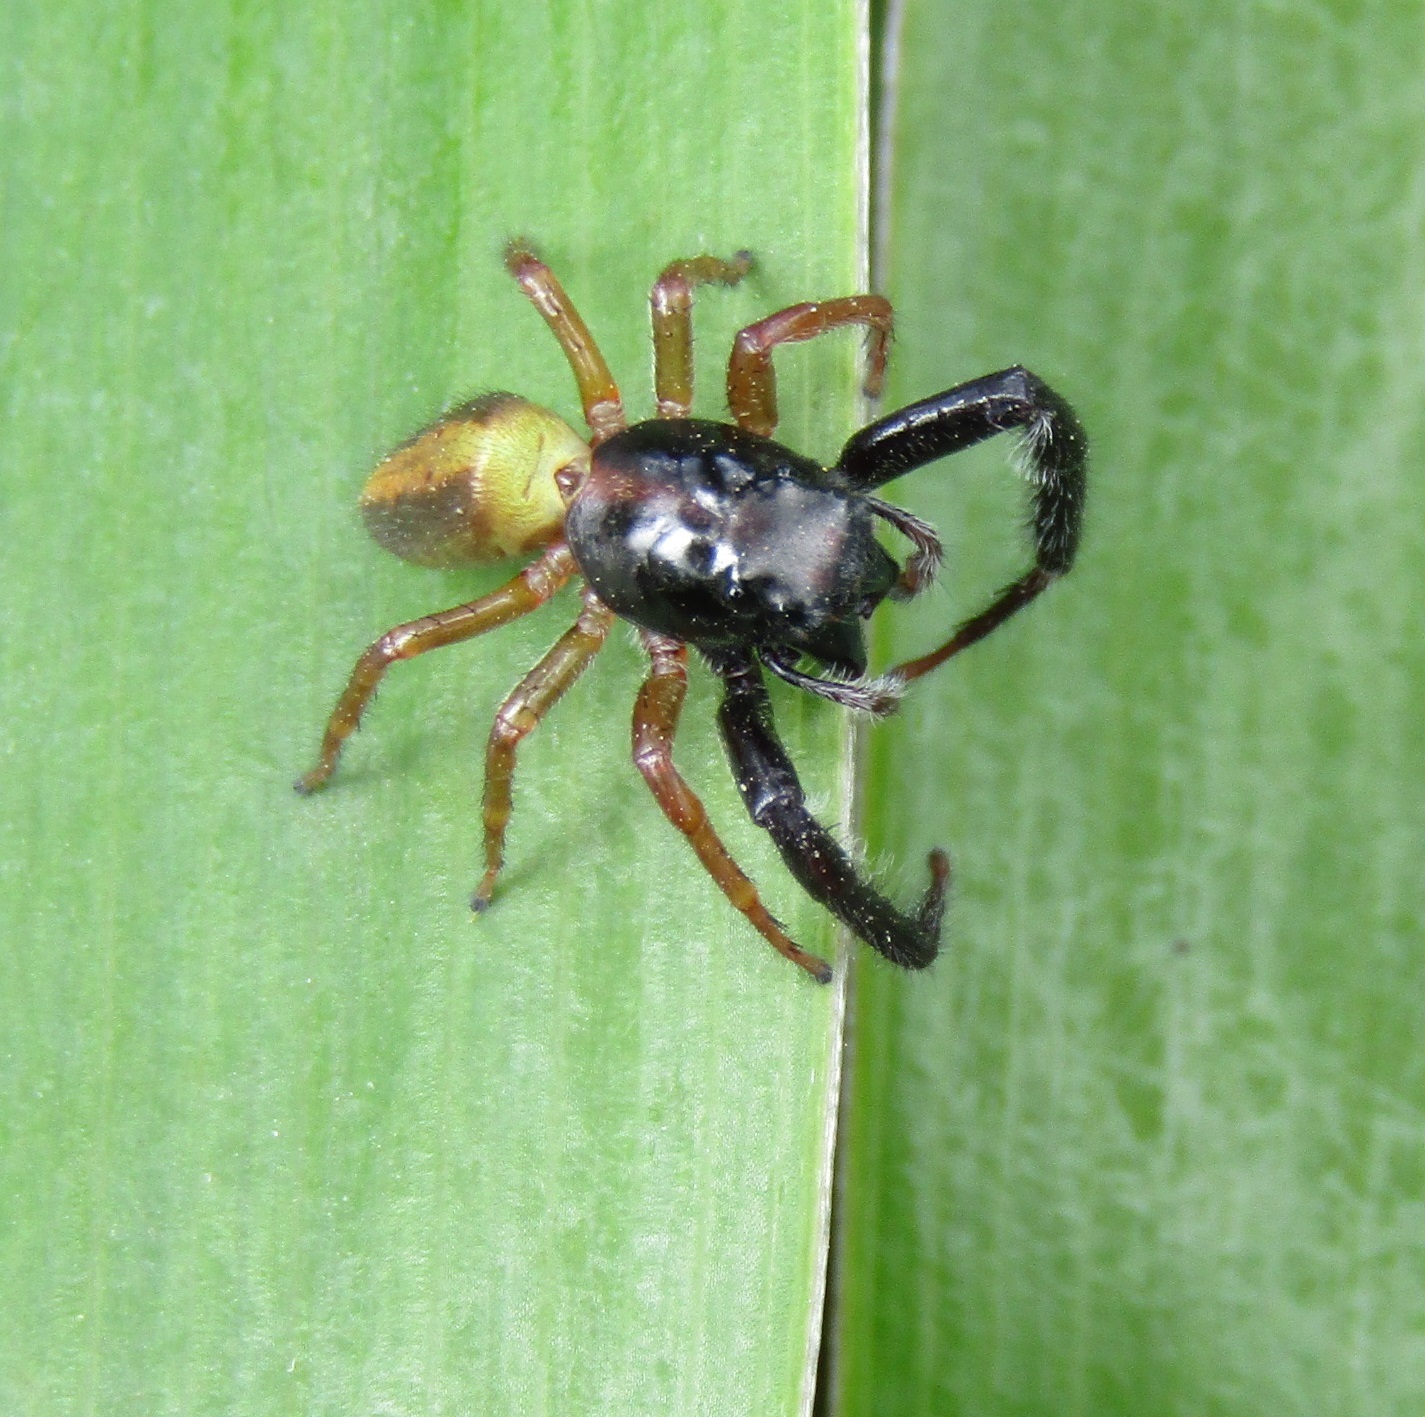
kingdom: Animalia
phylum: Arthropoda
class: Arachnida
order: Araneae
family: Salticidae
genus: Trite
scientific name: Trite planiceps
